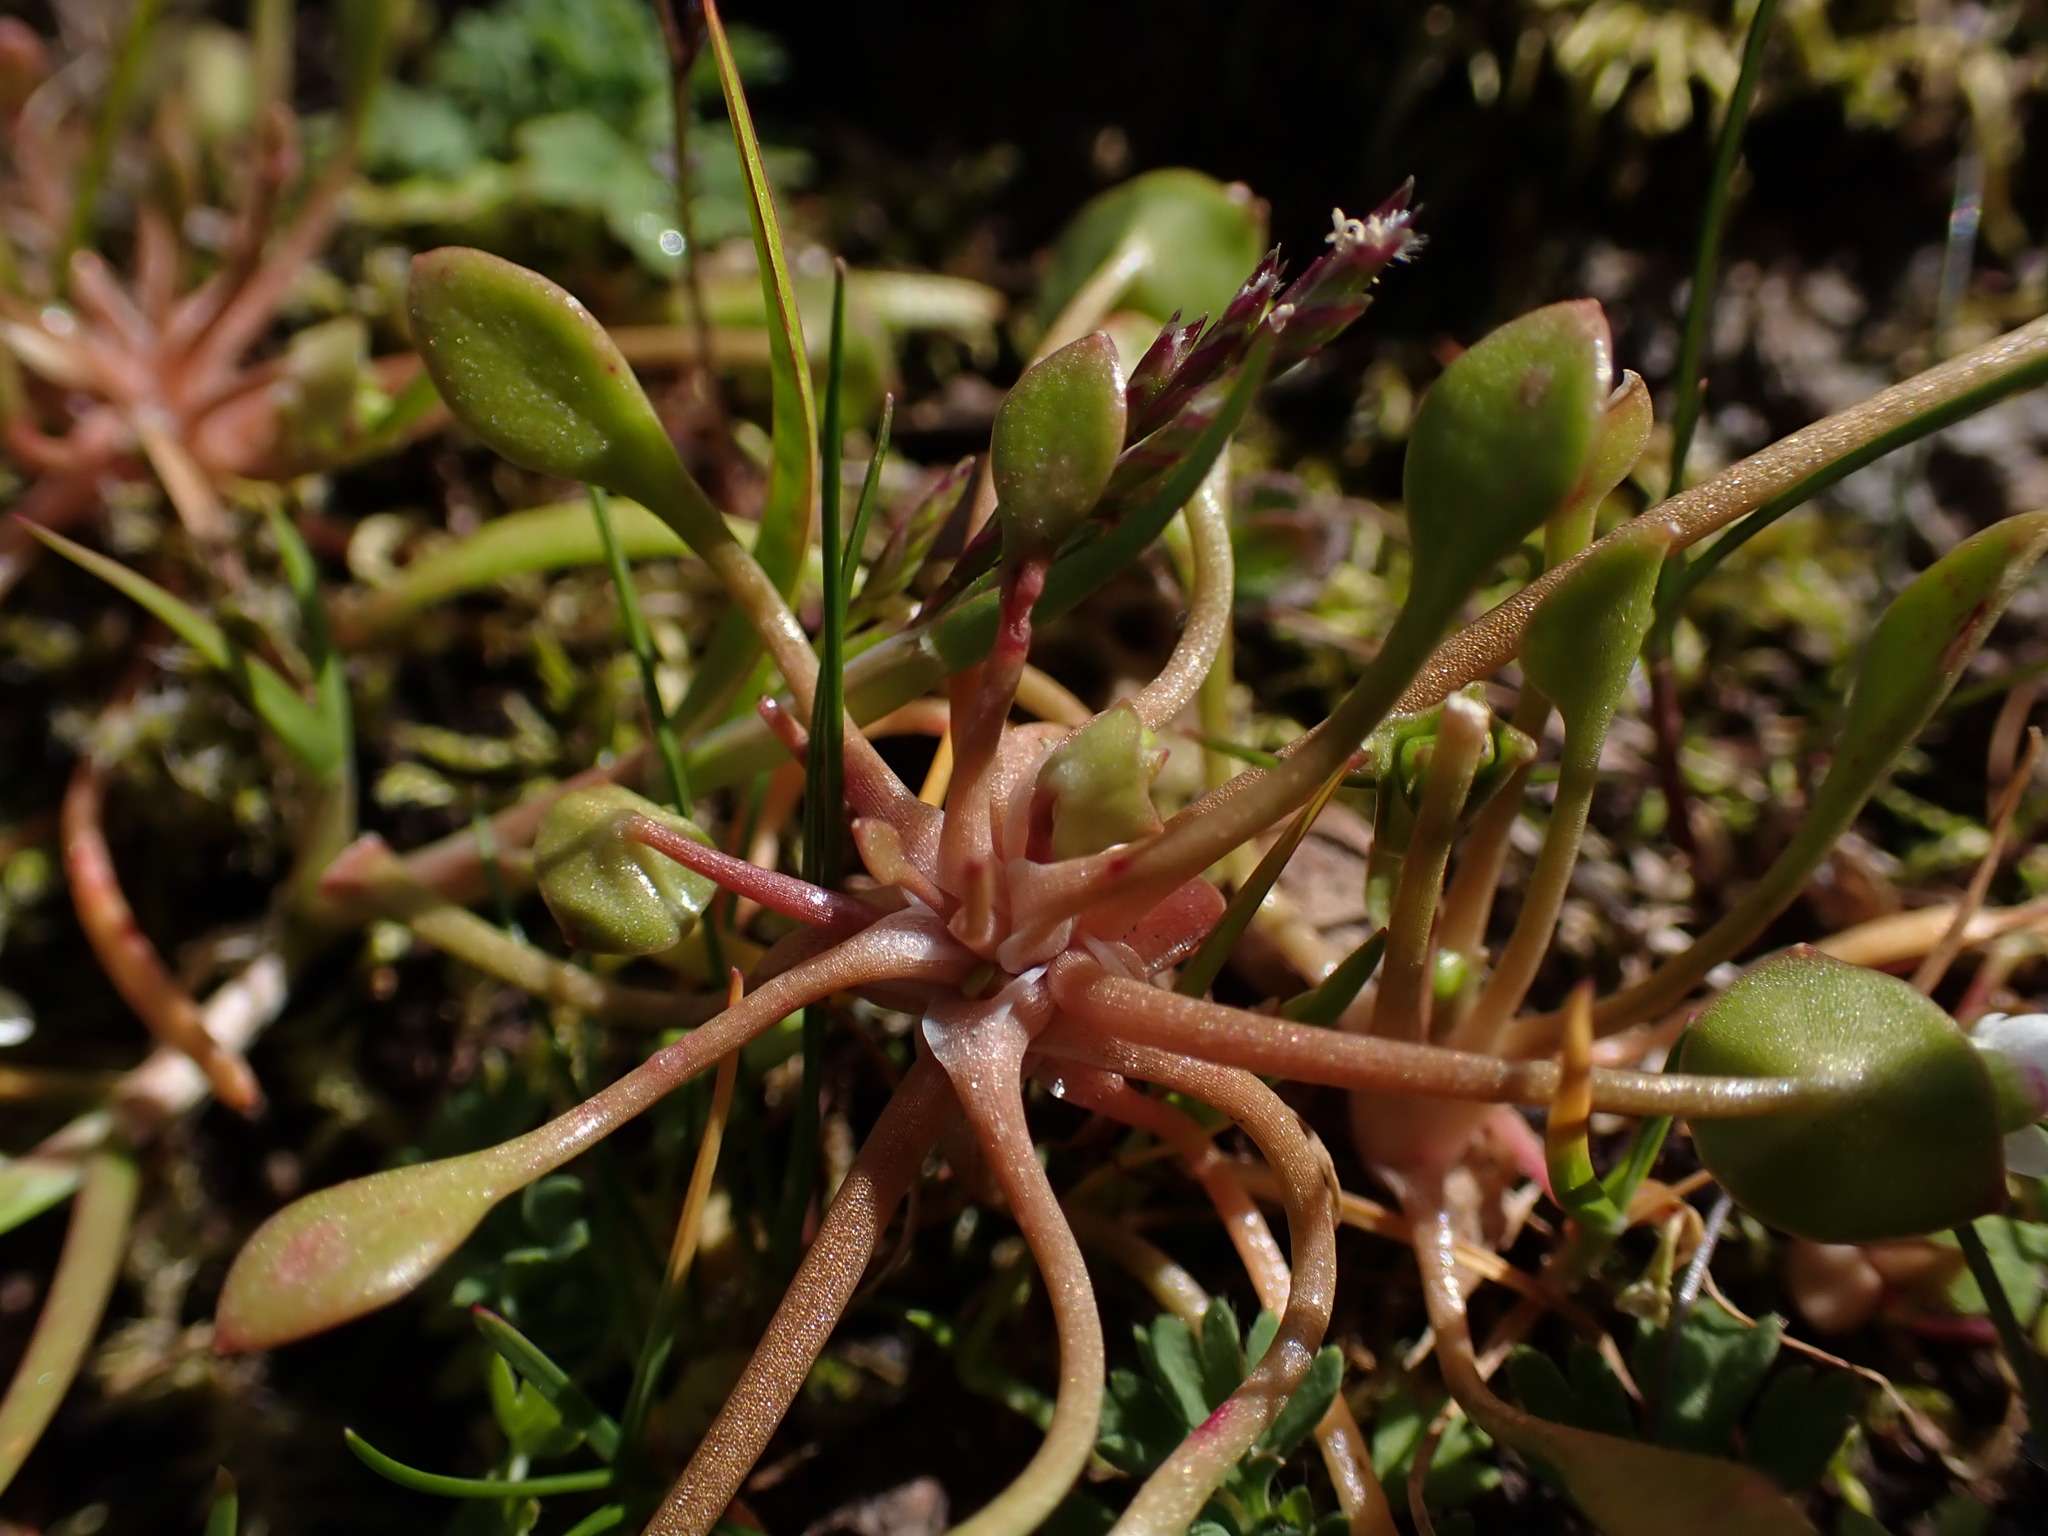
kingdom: Plantae
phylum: Tracheophyta
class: Magnoliopsida
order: Caryophyllales
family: Montiaceae
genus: Claytonia
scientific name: Claytonia rubra
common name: Erubescent miner's-lettuce
